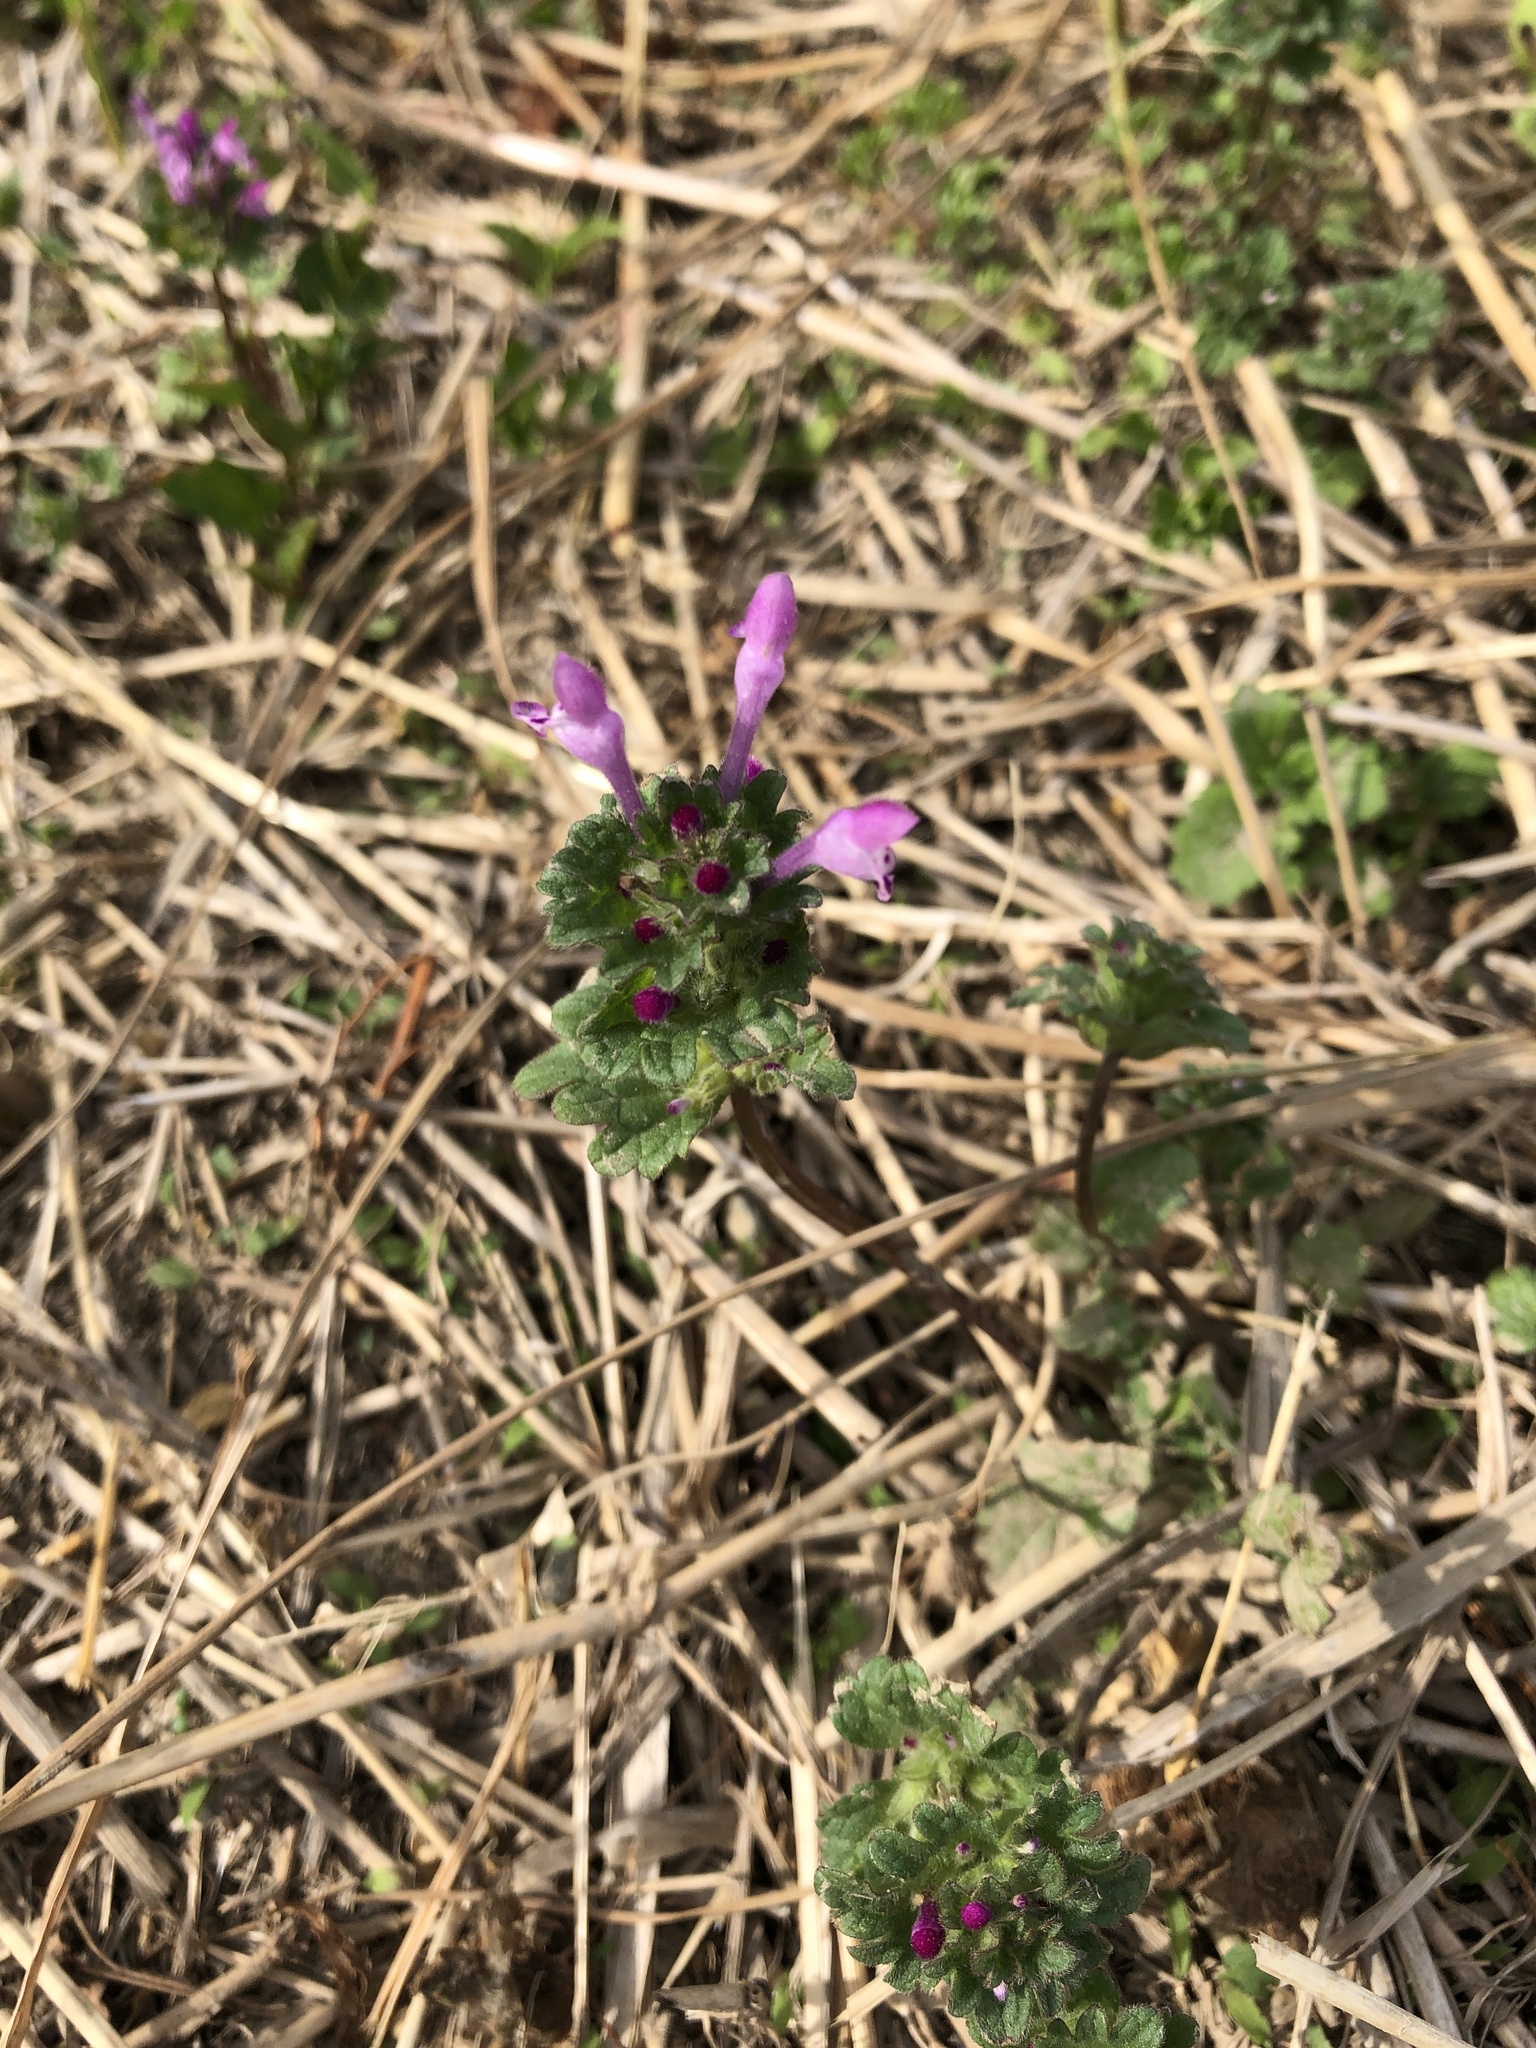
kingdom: Plantae
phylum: Tracheophyta
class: Magnoliopsida
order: Lamiales
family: Lamiaceae
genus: Lamium
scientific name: Lamium amplexicaule
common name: Henbit dead-nettle
